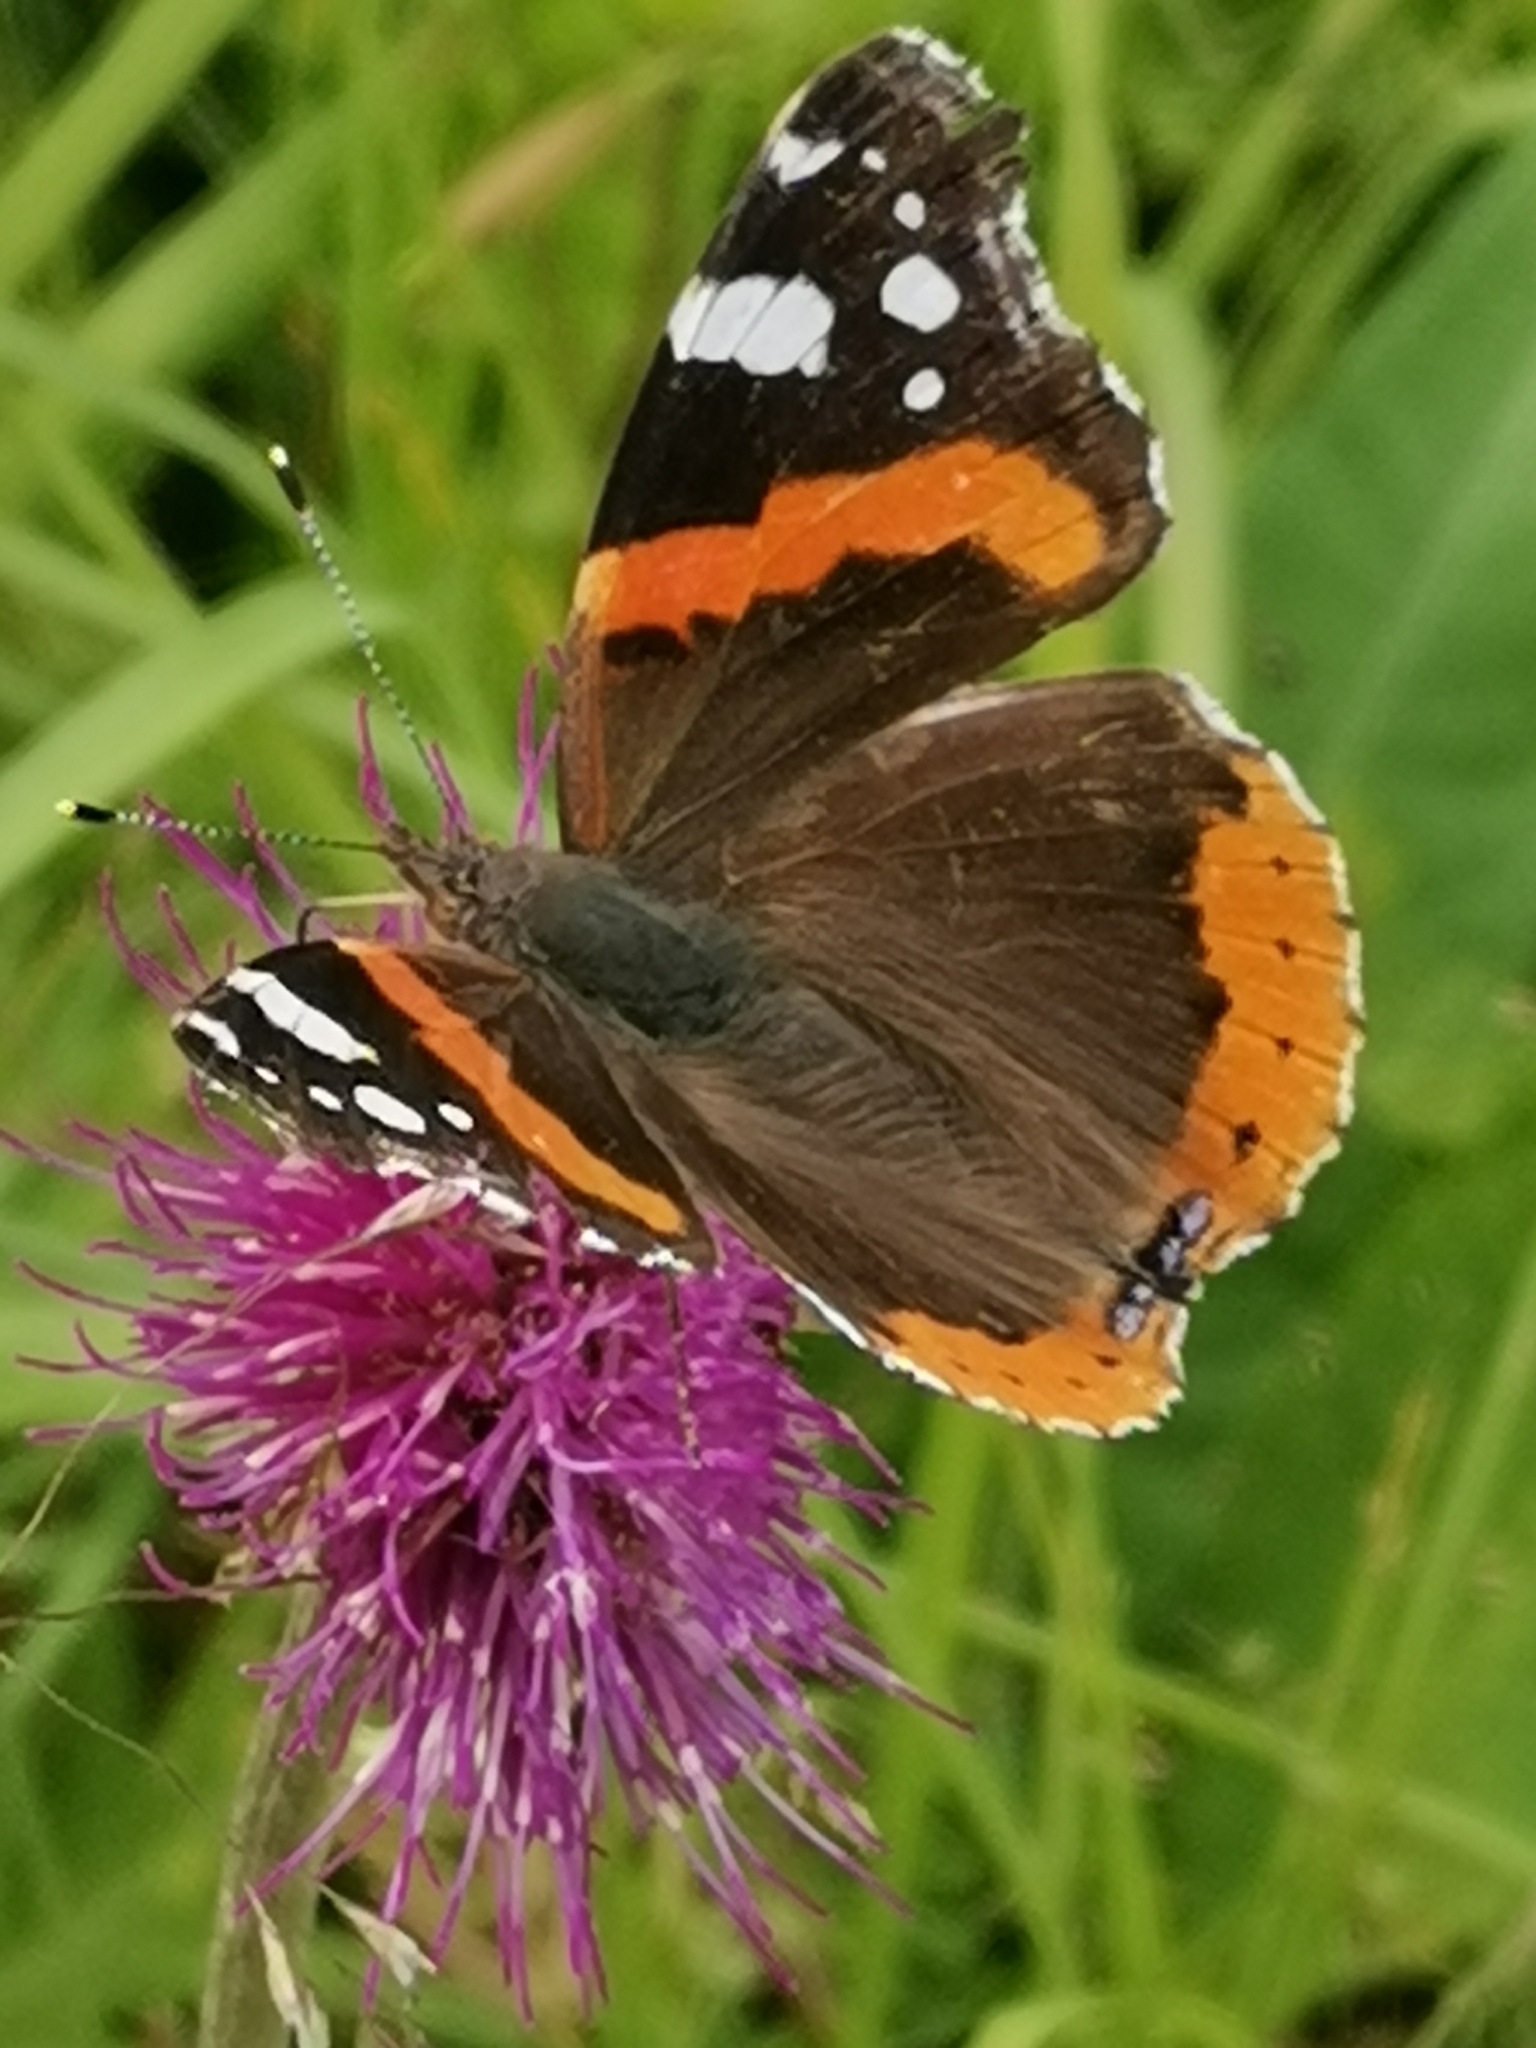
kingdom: Animalia
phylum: Arthropoda
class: Insecta
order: Lepidoptera
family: Nymphalidae
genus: Vanessa
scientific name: Vanessa atalanta
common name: Red admiral
